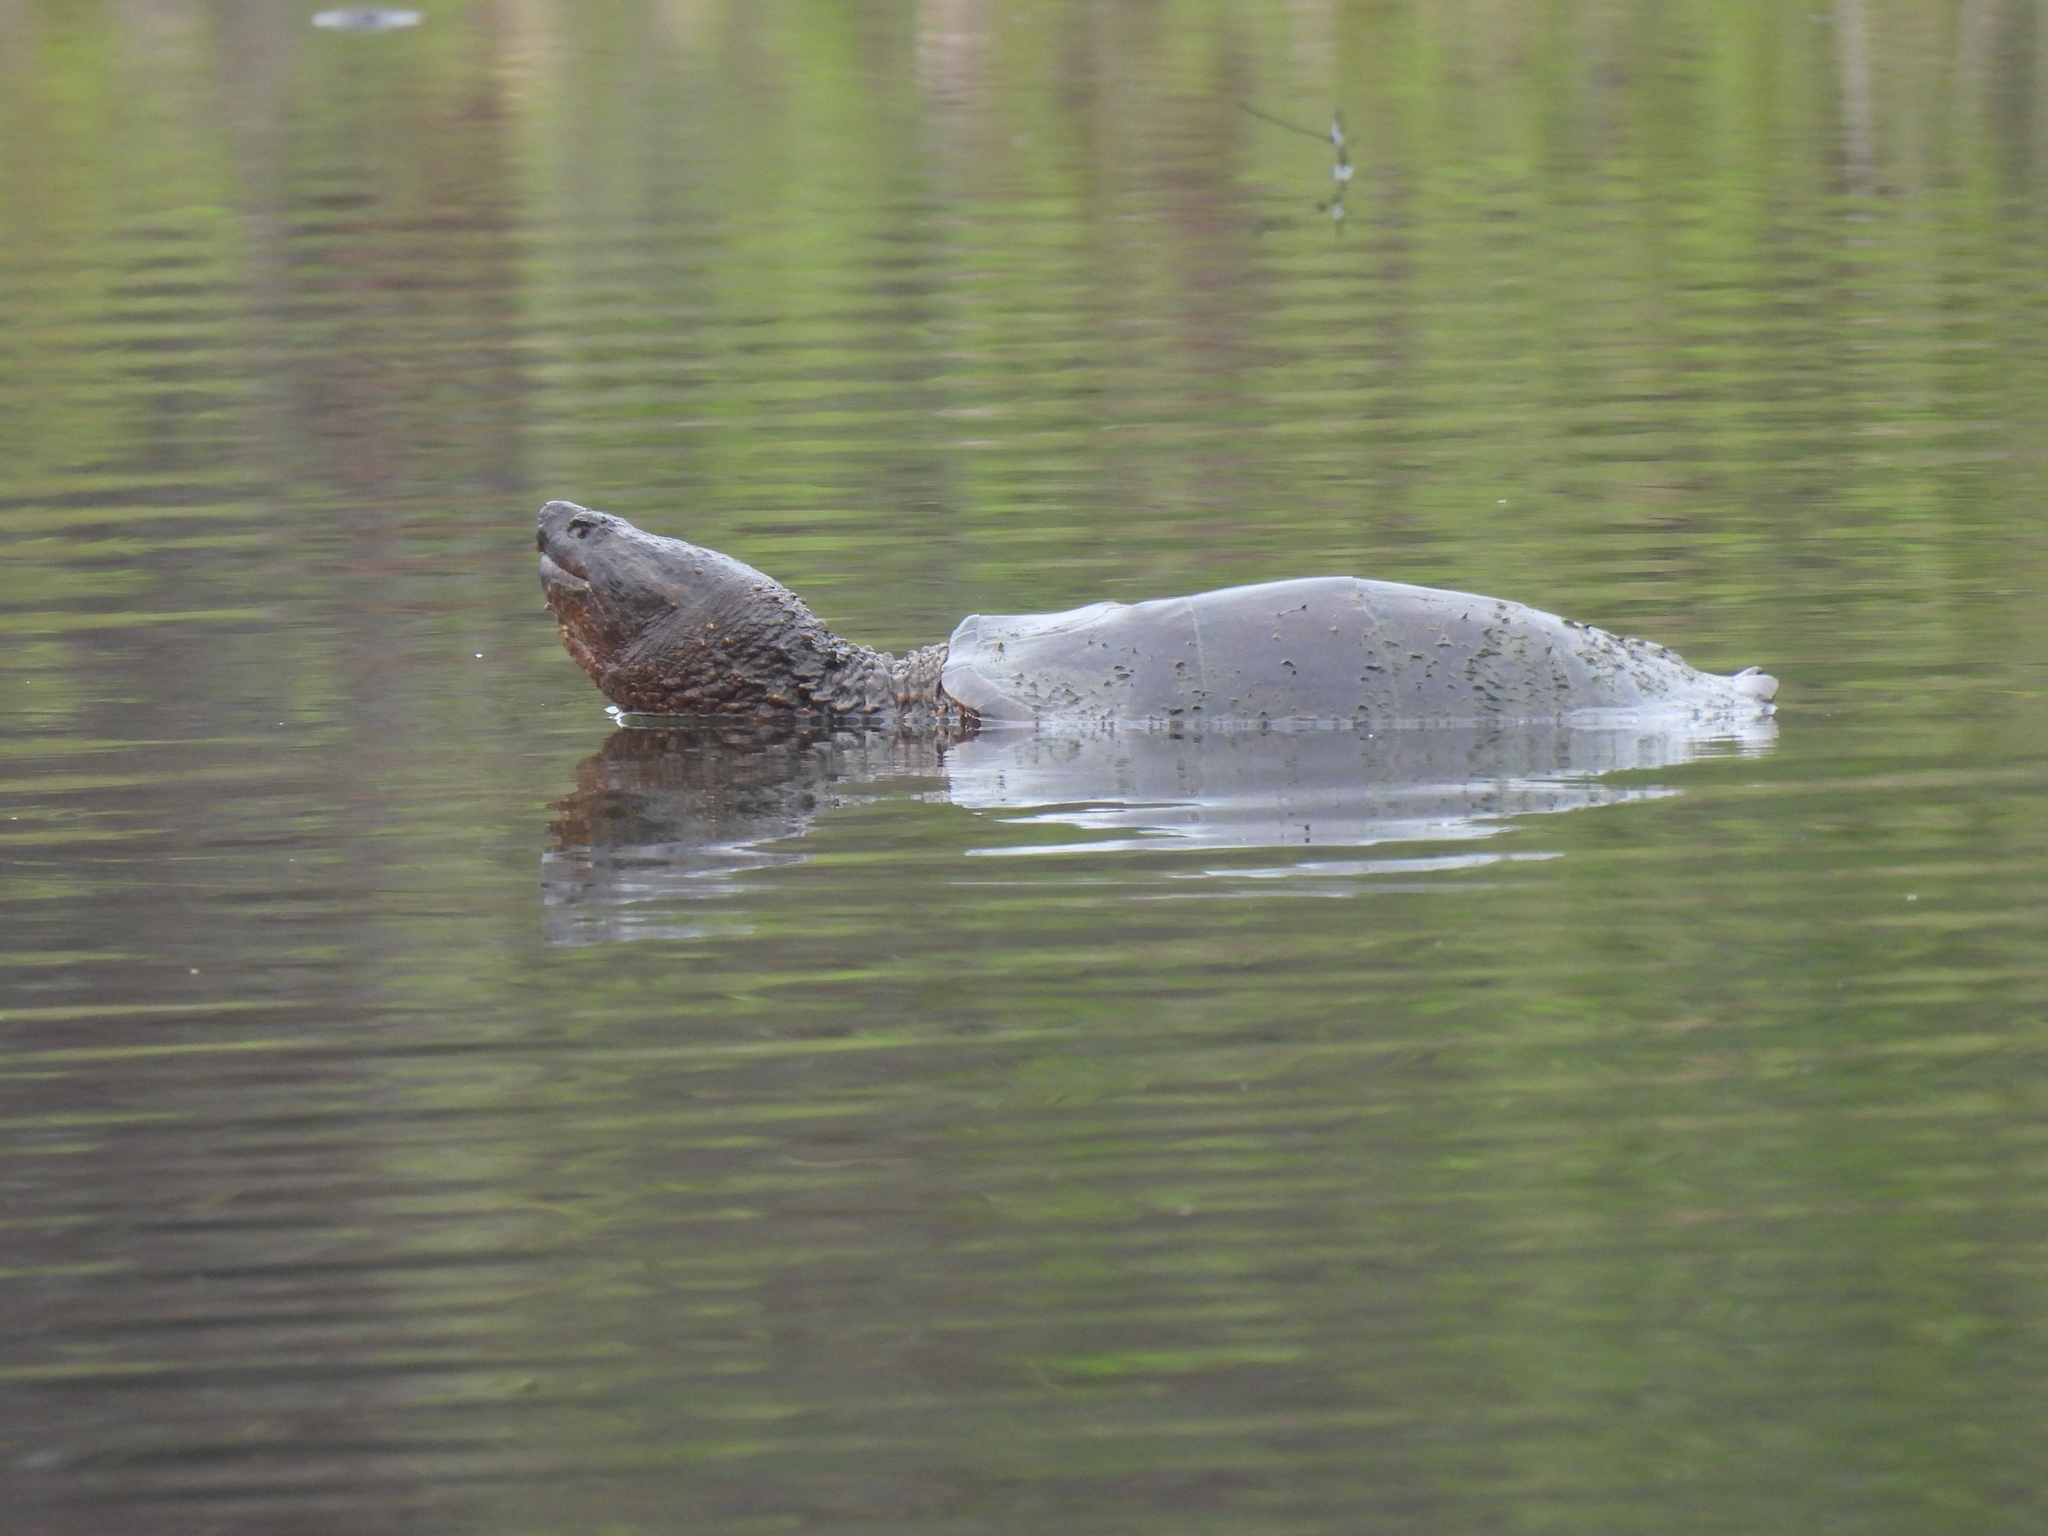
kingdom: Animalia
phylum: Chordata
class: Testudines
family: Chelydridae
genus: Chelydra
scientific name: Chelydra serpentina
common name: Common snapping turtle
